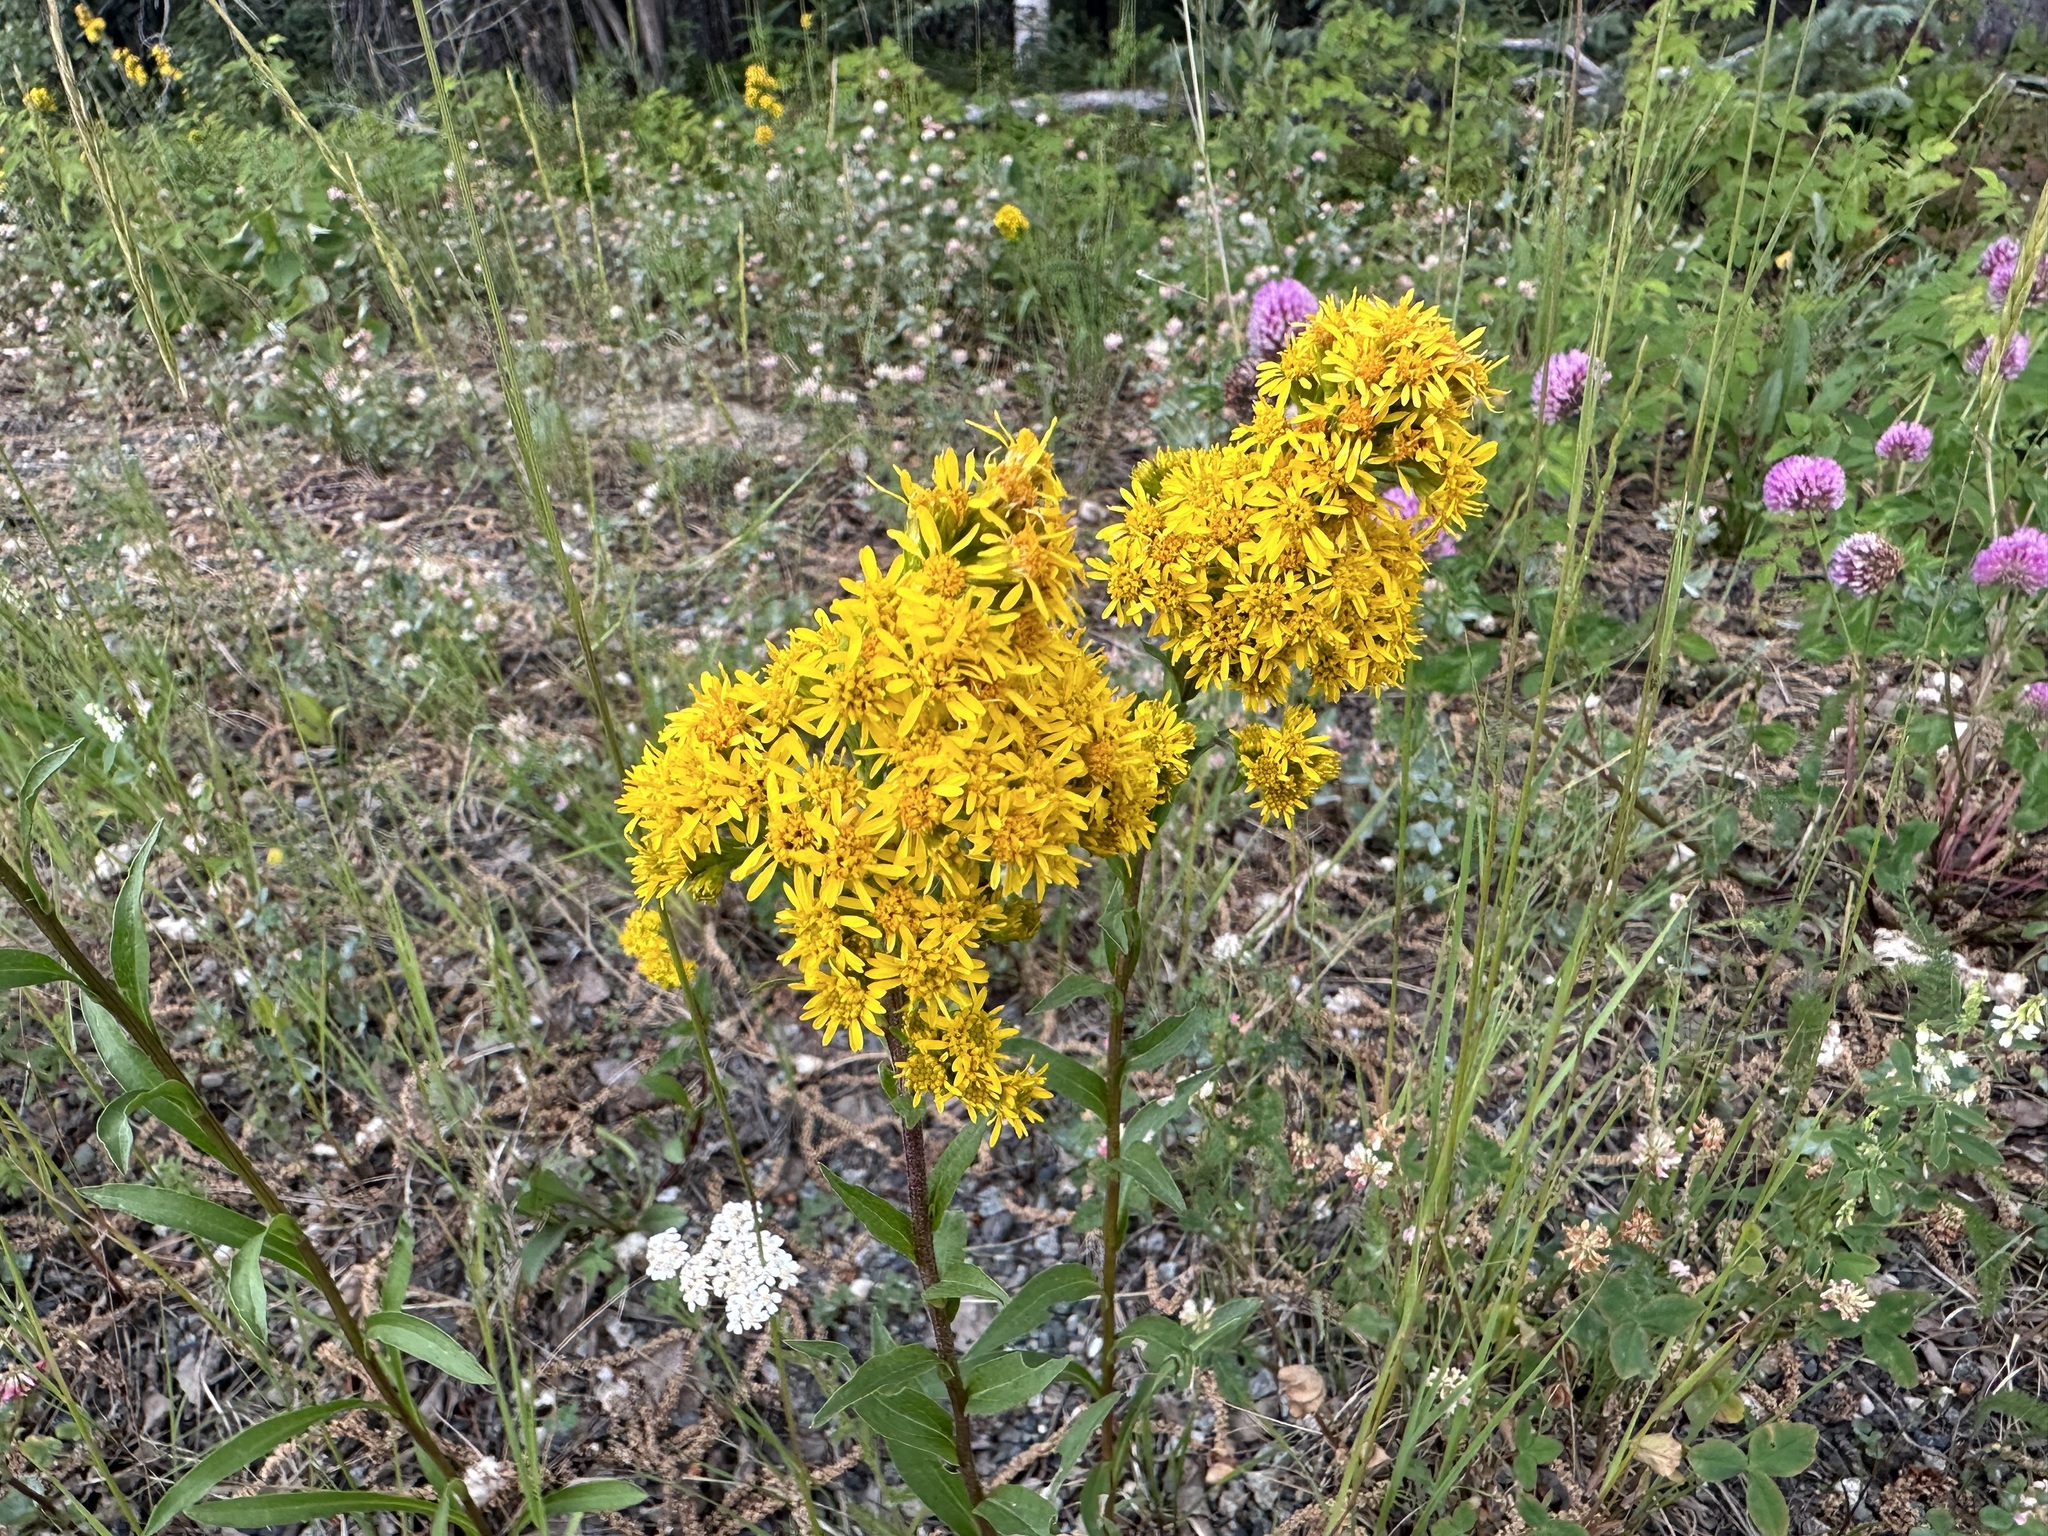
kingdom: Plantae
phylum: Tracheophyta
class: Magnoliopsida
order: Asterales
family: Asteraceae
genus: Solidago
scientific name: Solidago multiradiata
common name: Northern goldenrod
